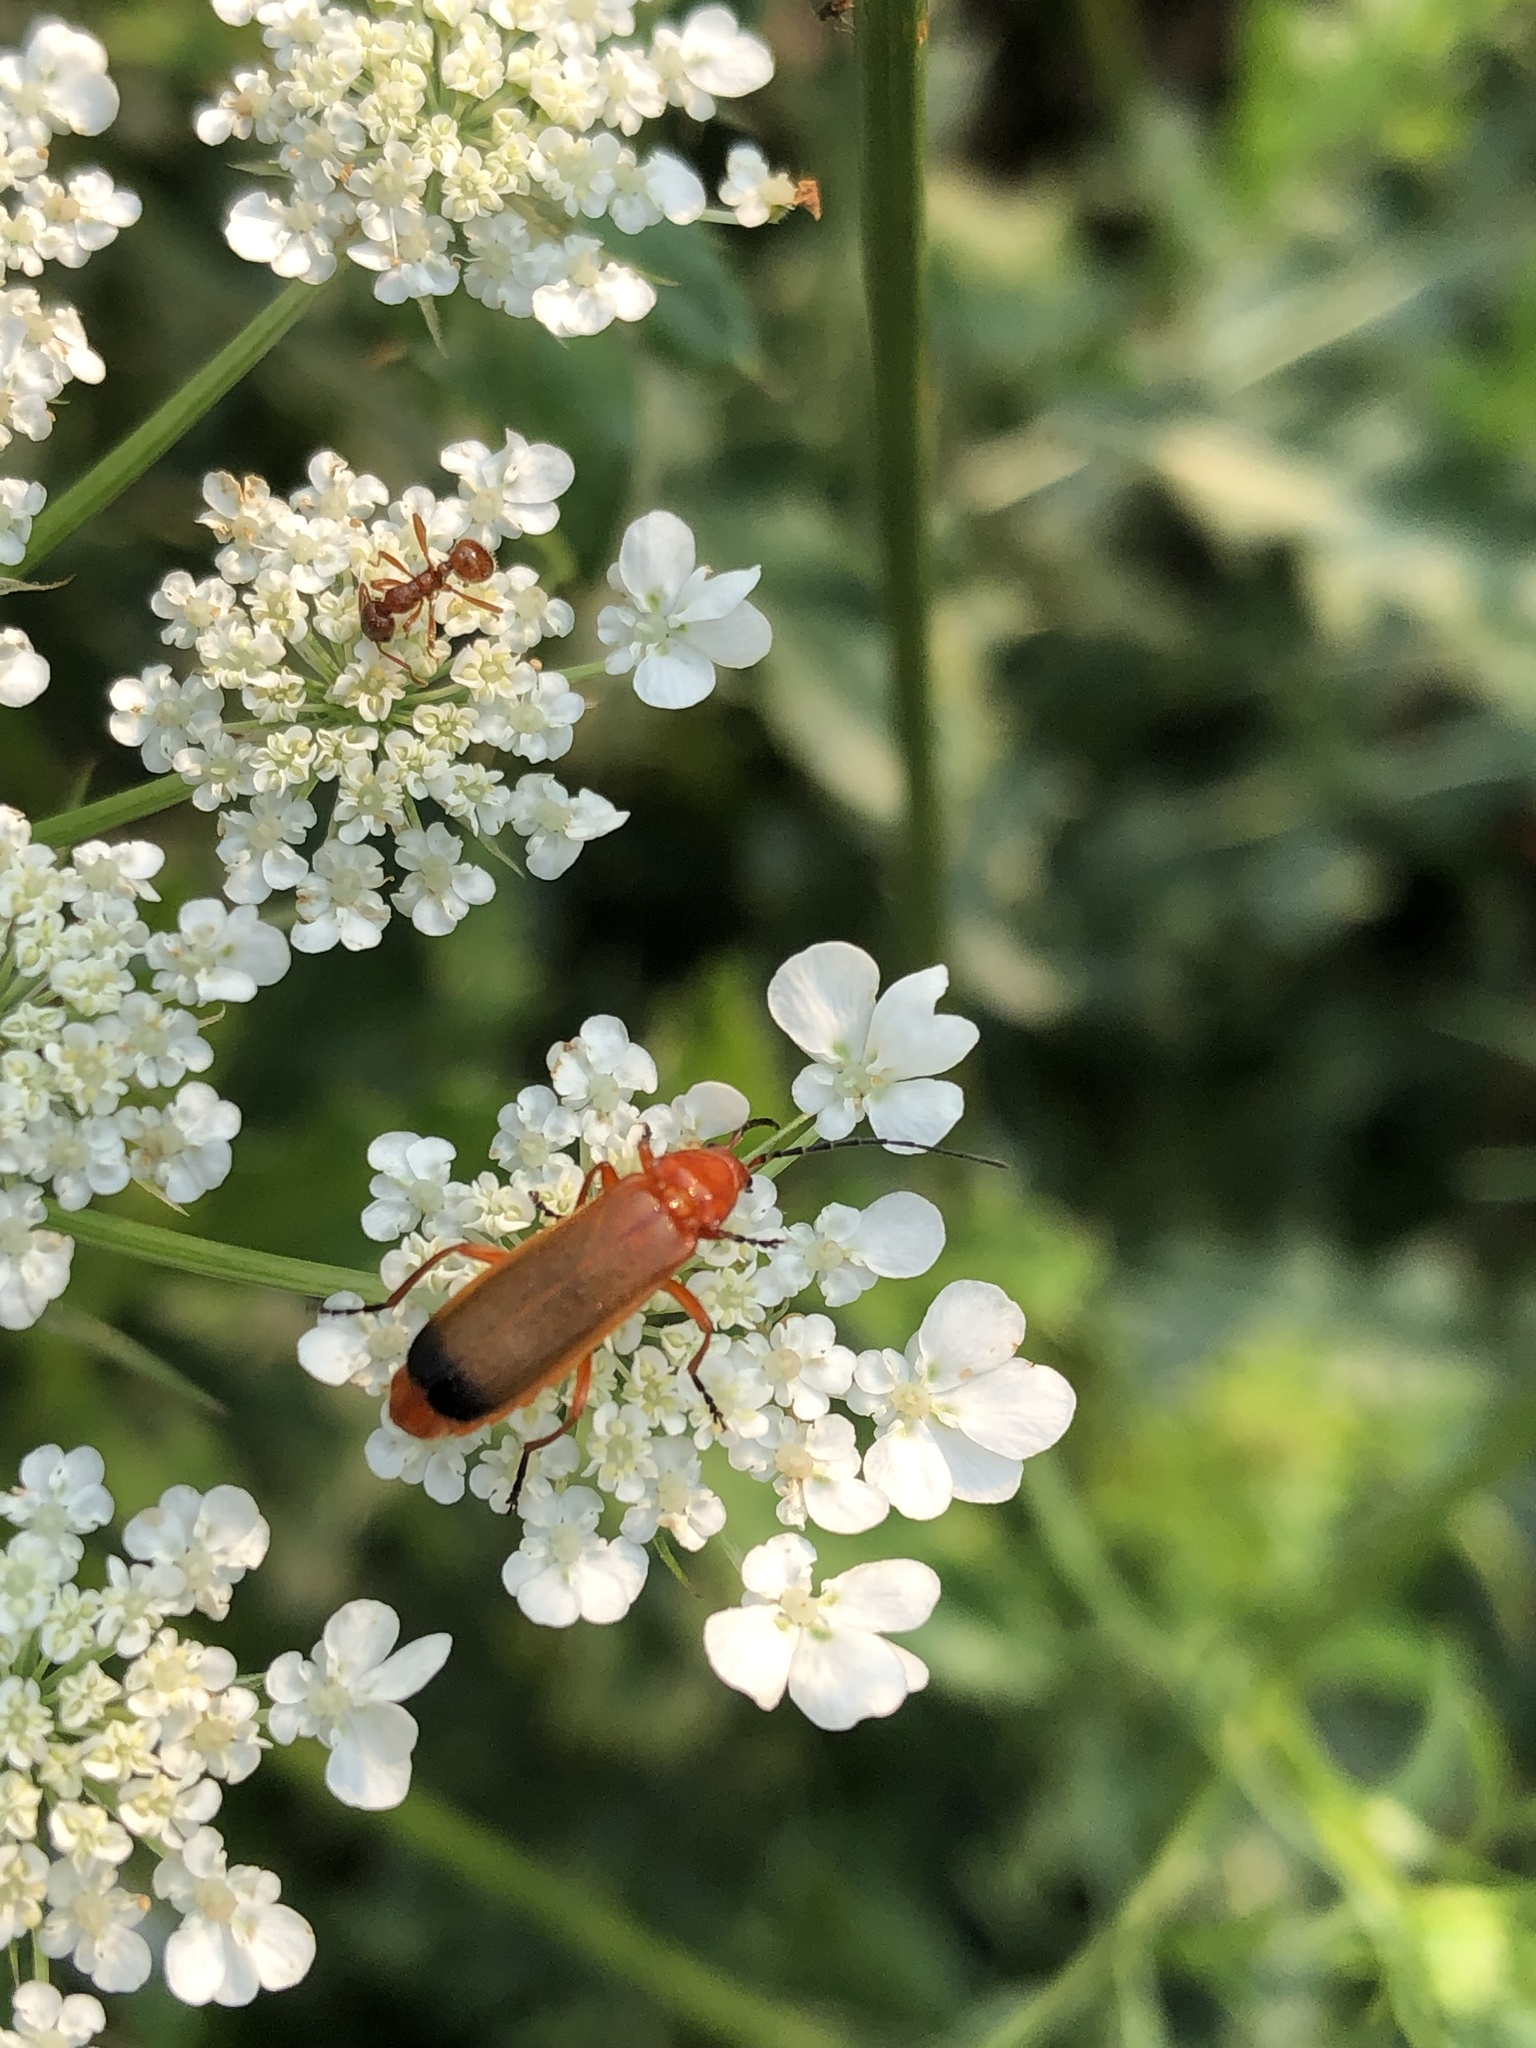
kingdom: Animalia
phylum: Arthropoda
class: Insecta
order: Coleoptera
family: Cantharidae
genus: Rhagonycha
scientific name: Rhagonycha fulva
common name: Common red soldier beetle
